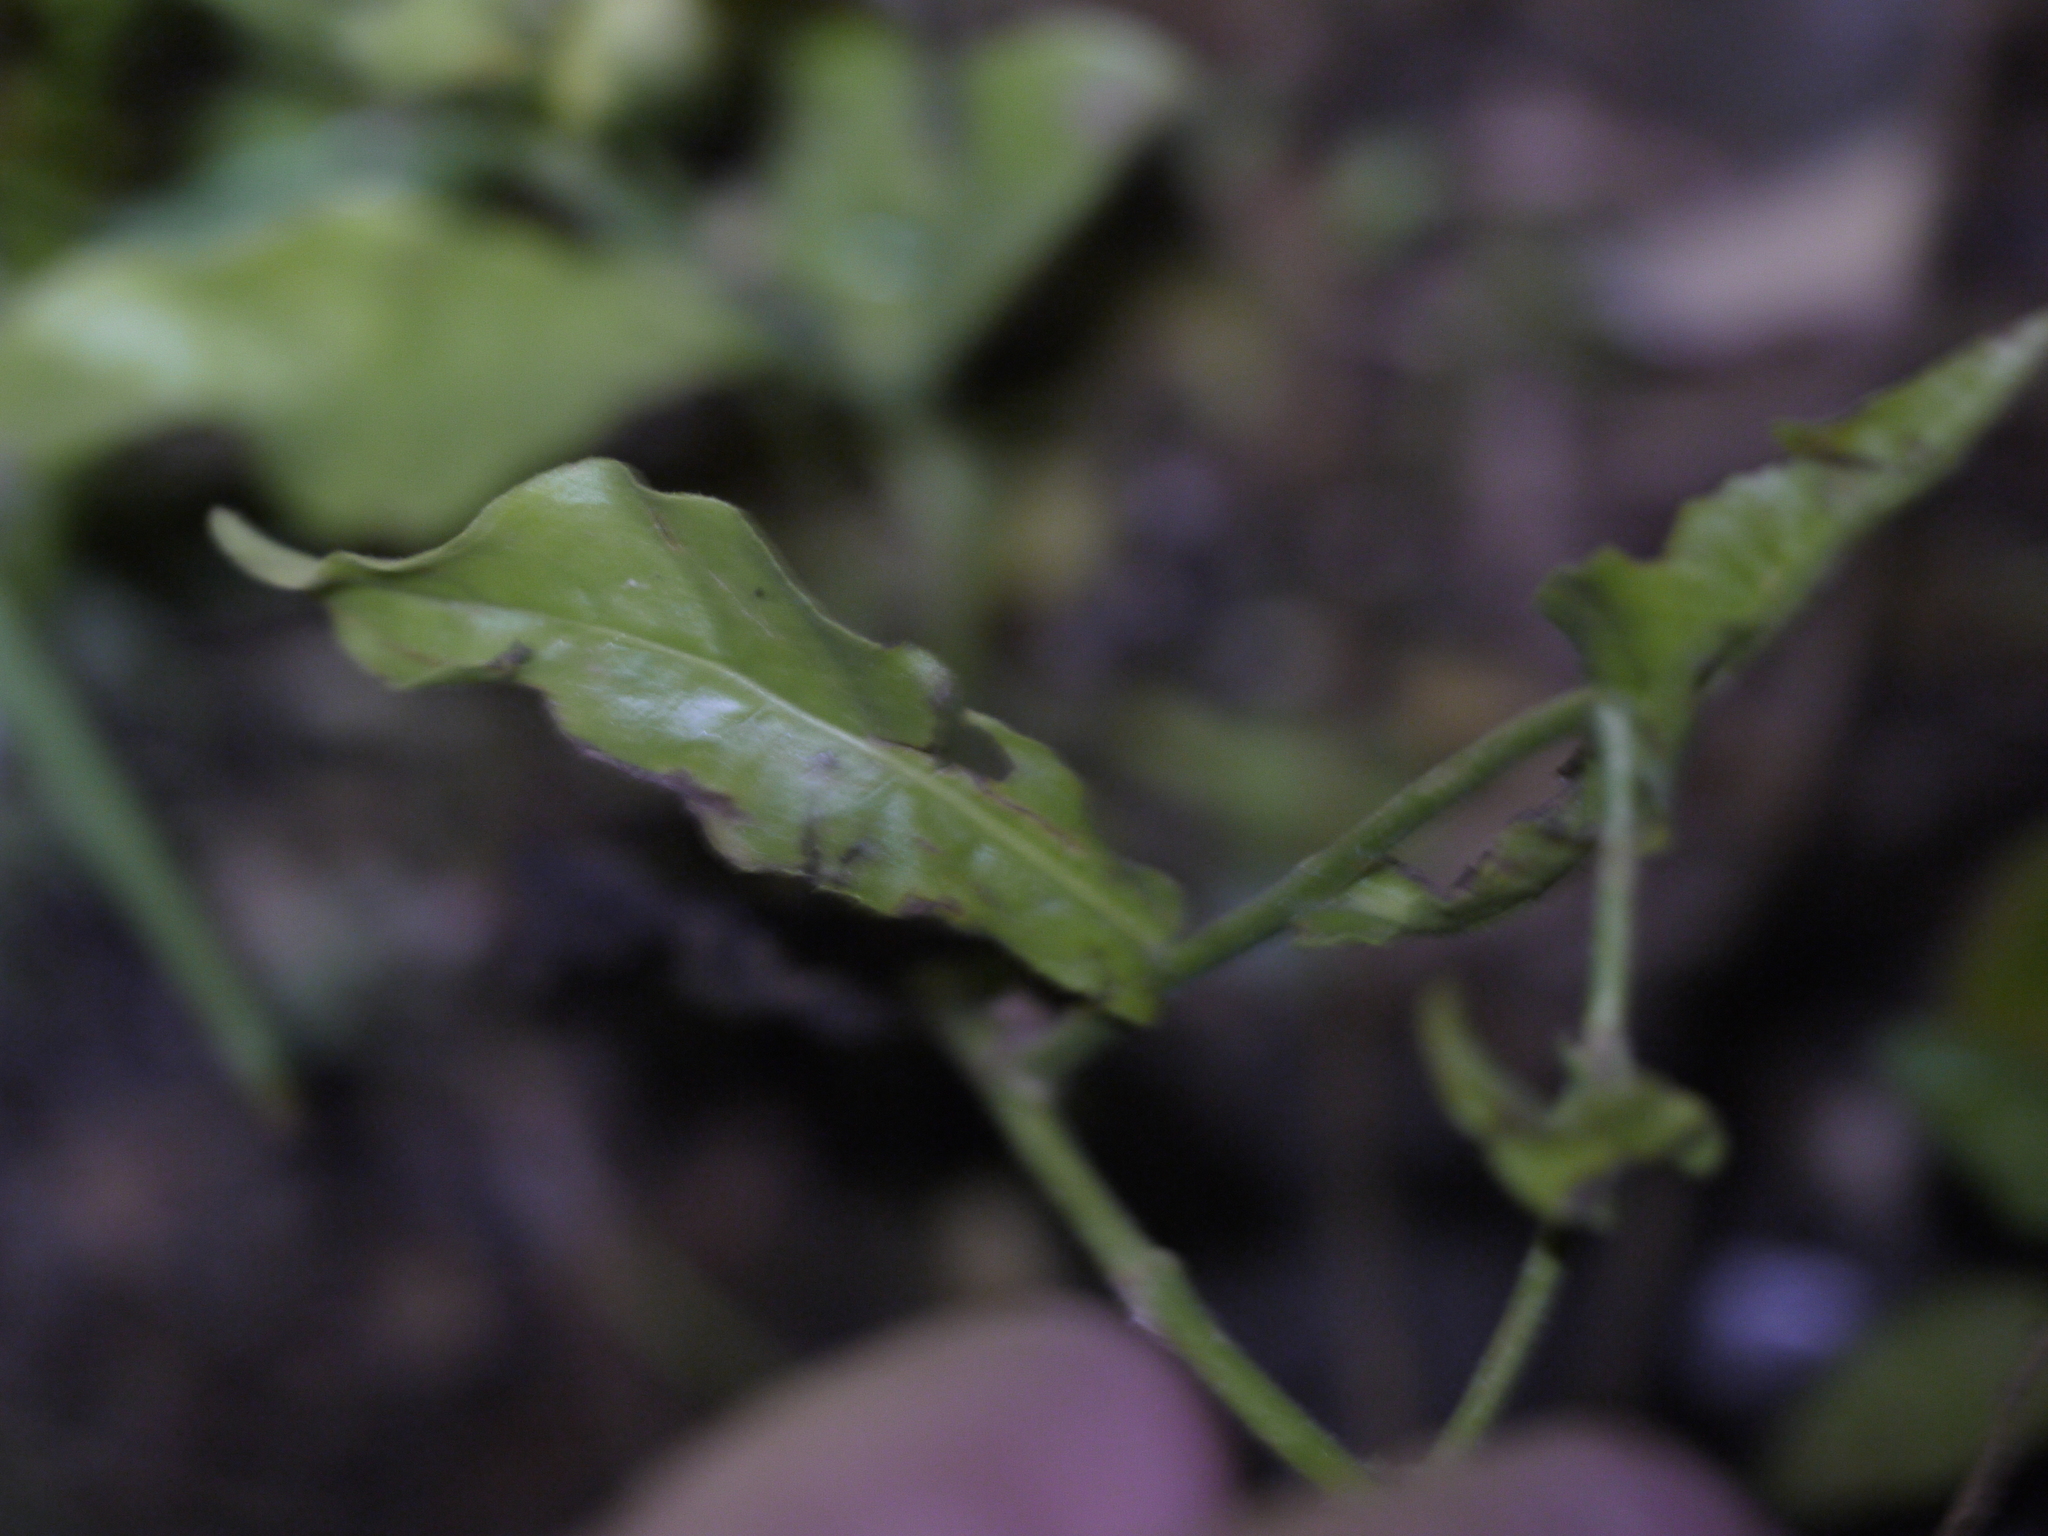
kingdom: Plantae
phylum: Tracheophyta
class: Magnoliopsida
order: Solanales
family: Solanaceae
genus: Nicotiana
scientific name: Nicotiana plumbaginifolia
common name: Tex-mex tobacco
